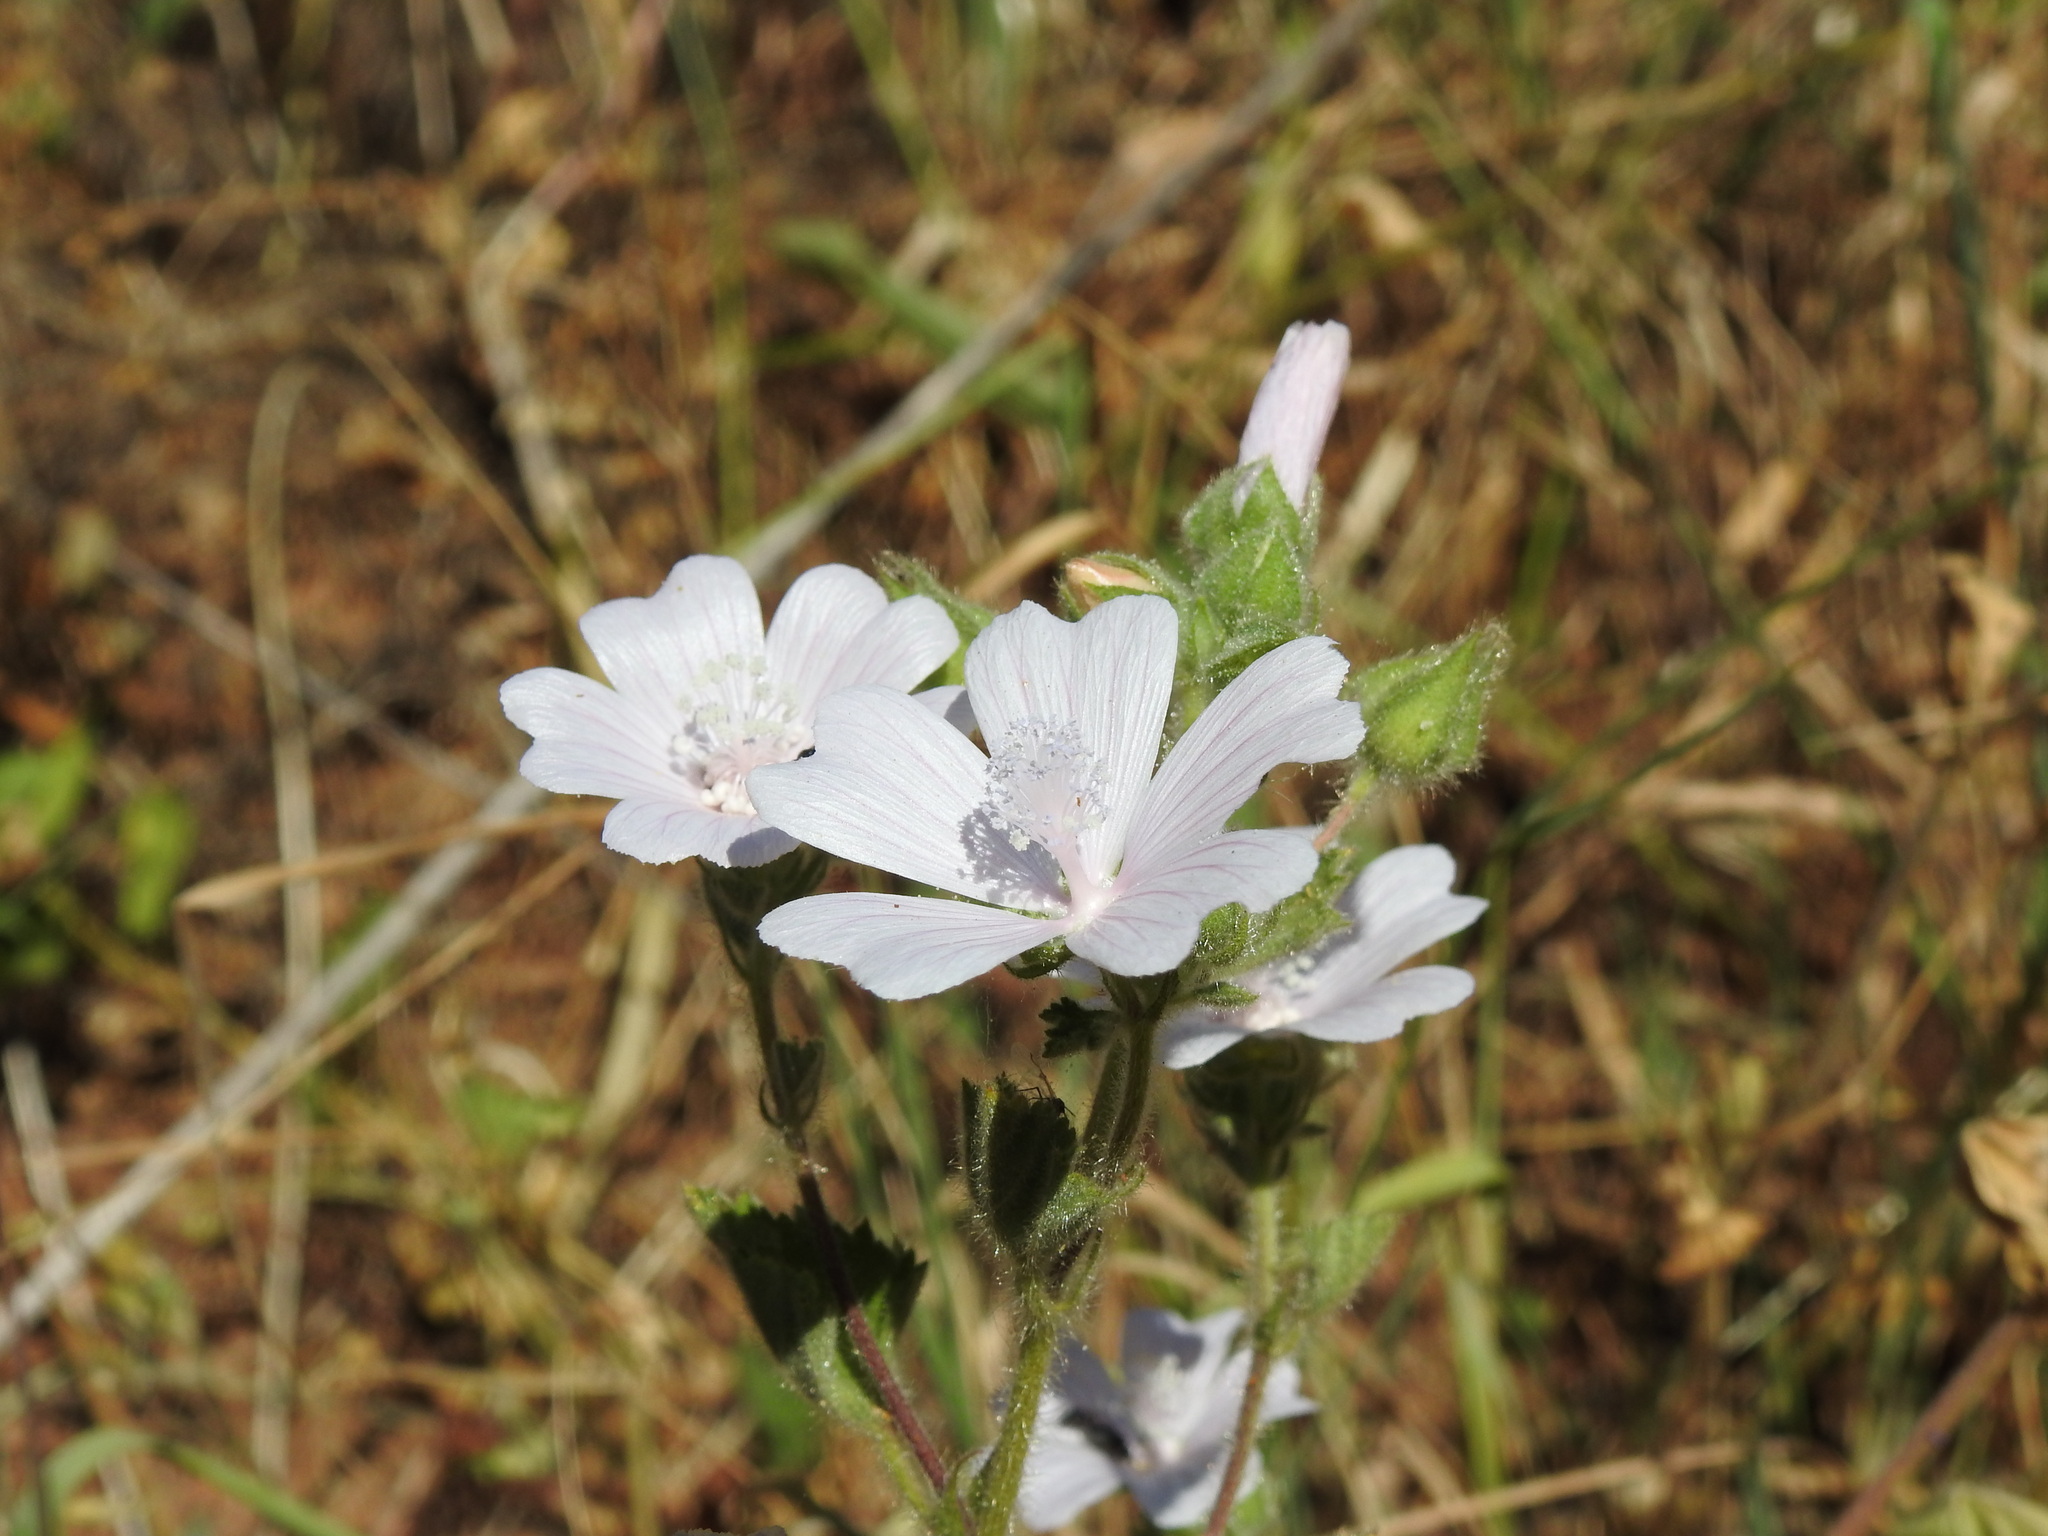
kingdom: Plantae
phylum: Tracheophyta
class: Magnoliopsida
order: Malvales
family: Malvaceae
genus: Malva
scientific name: Malva hispanica
